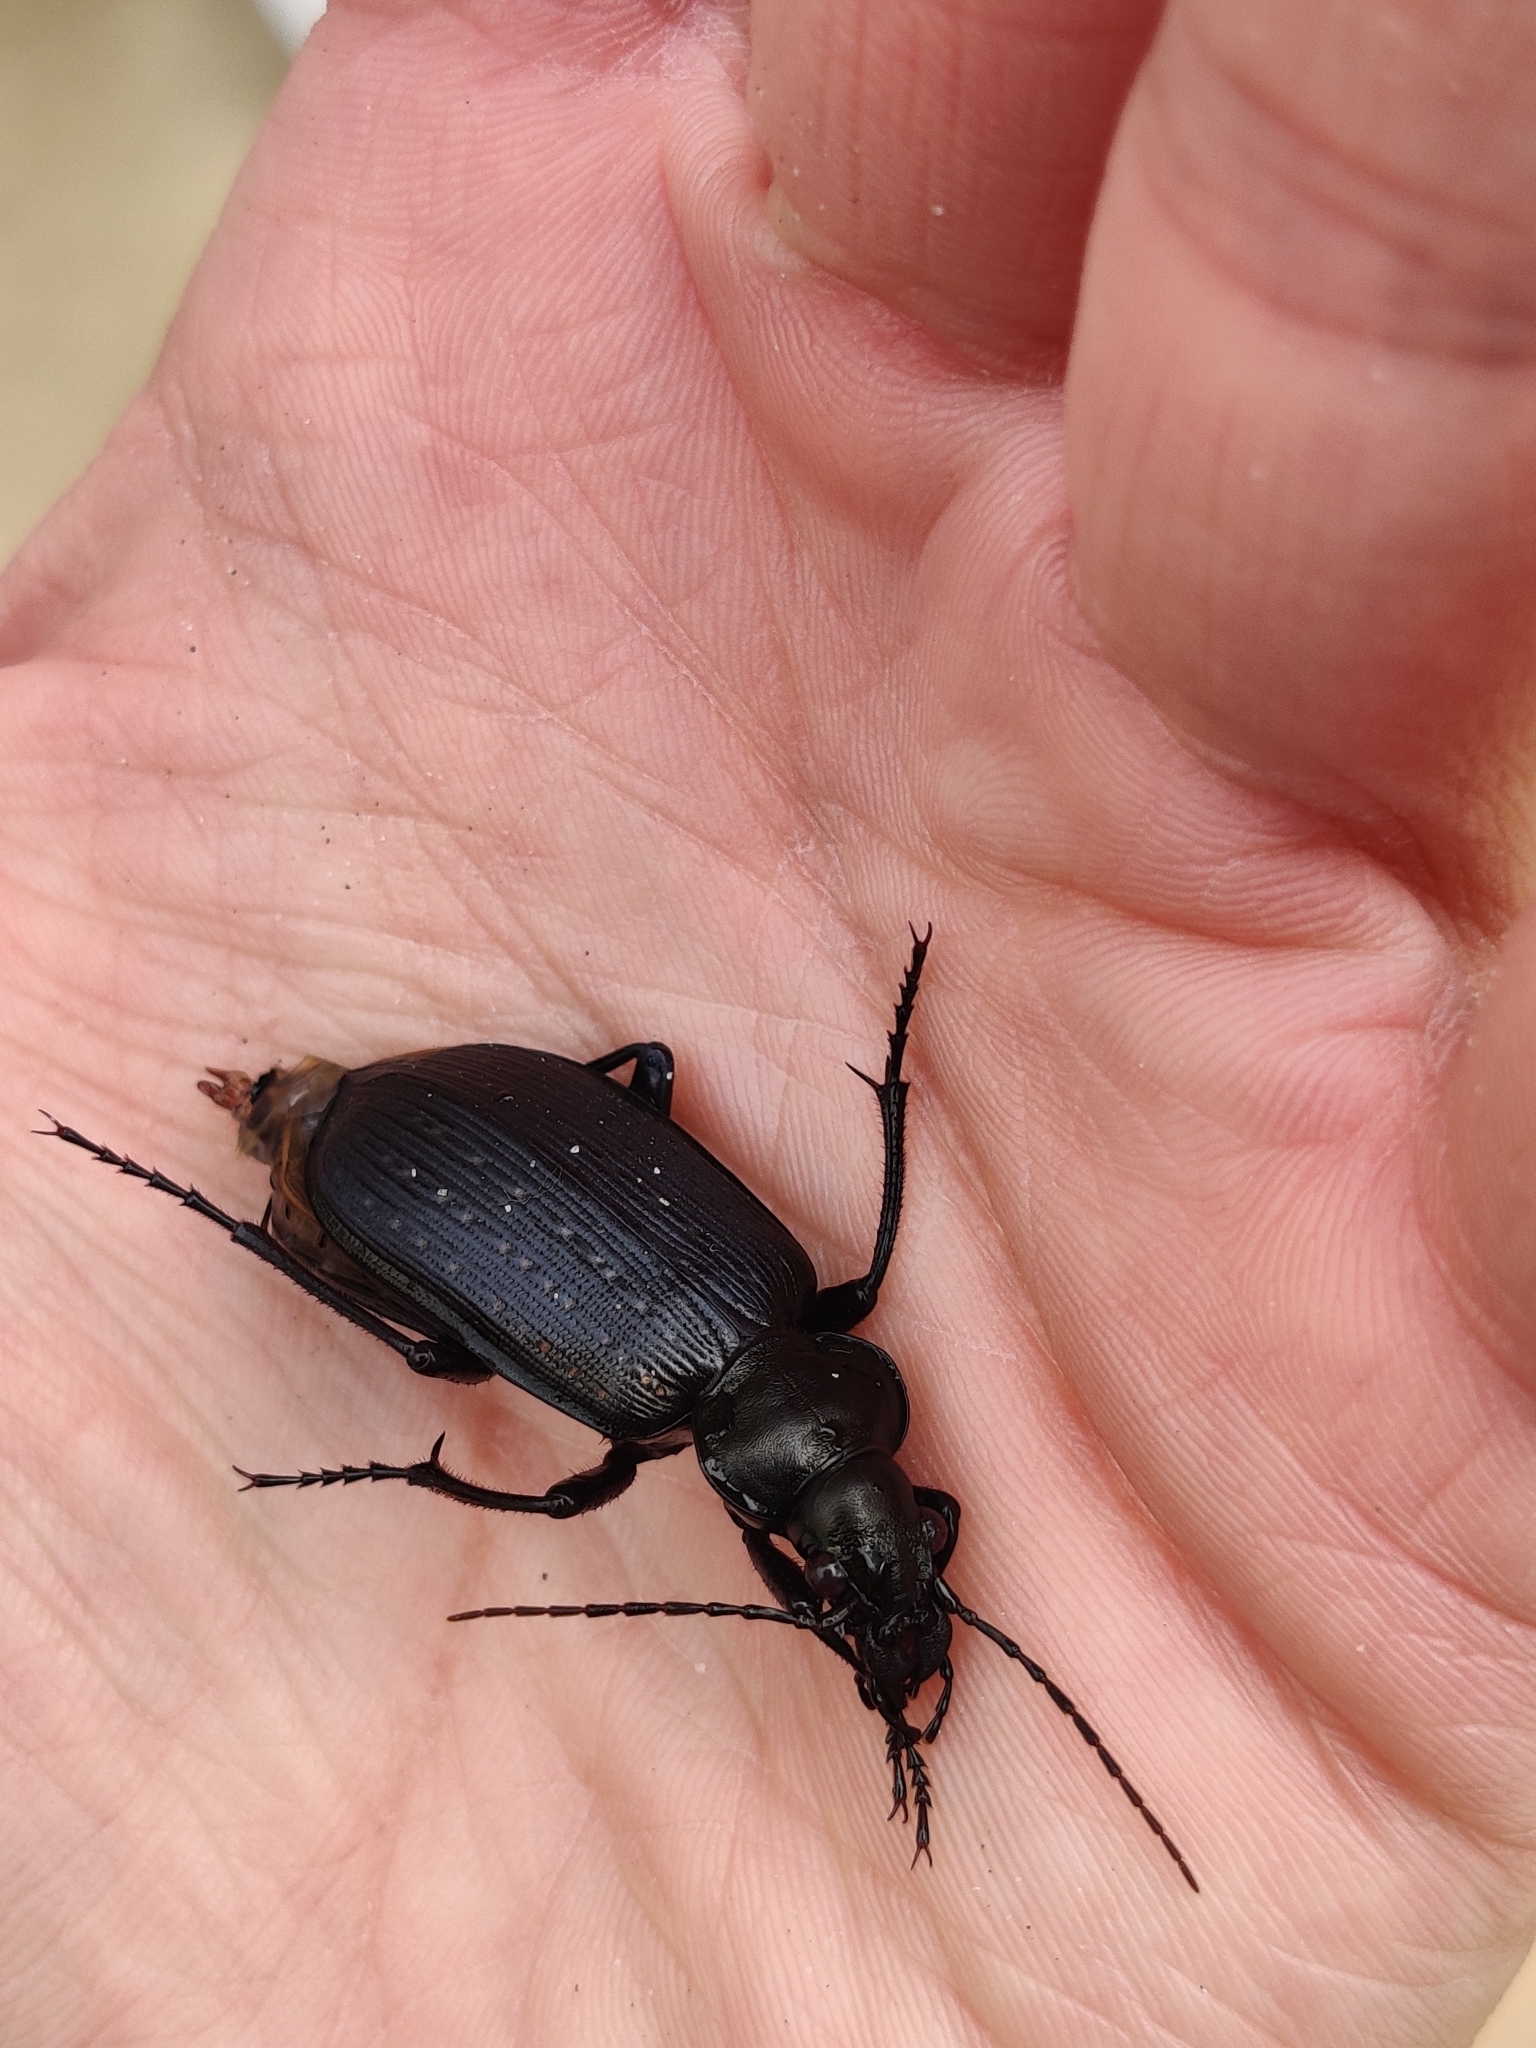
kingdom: Animalia
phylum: Arthropoda
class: Insecta
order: Coleoptera
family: Carabidae
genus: Calosoma
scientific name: Calosoma sayi
